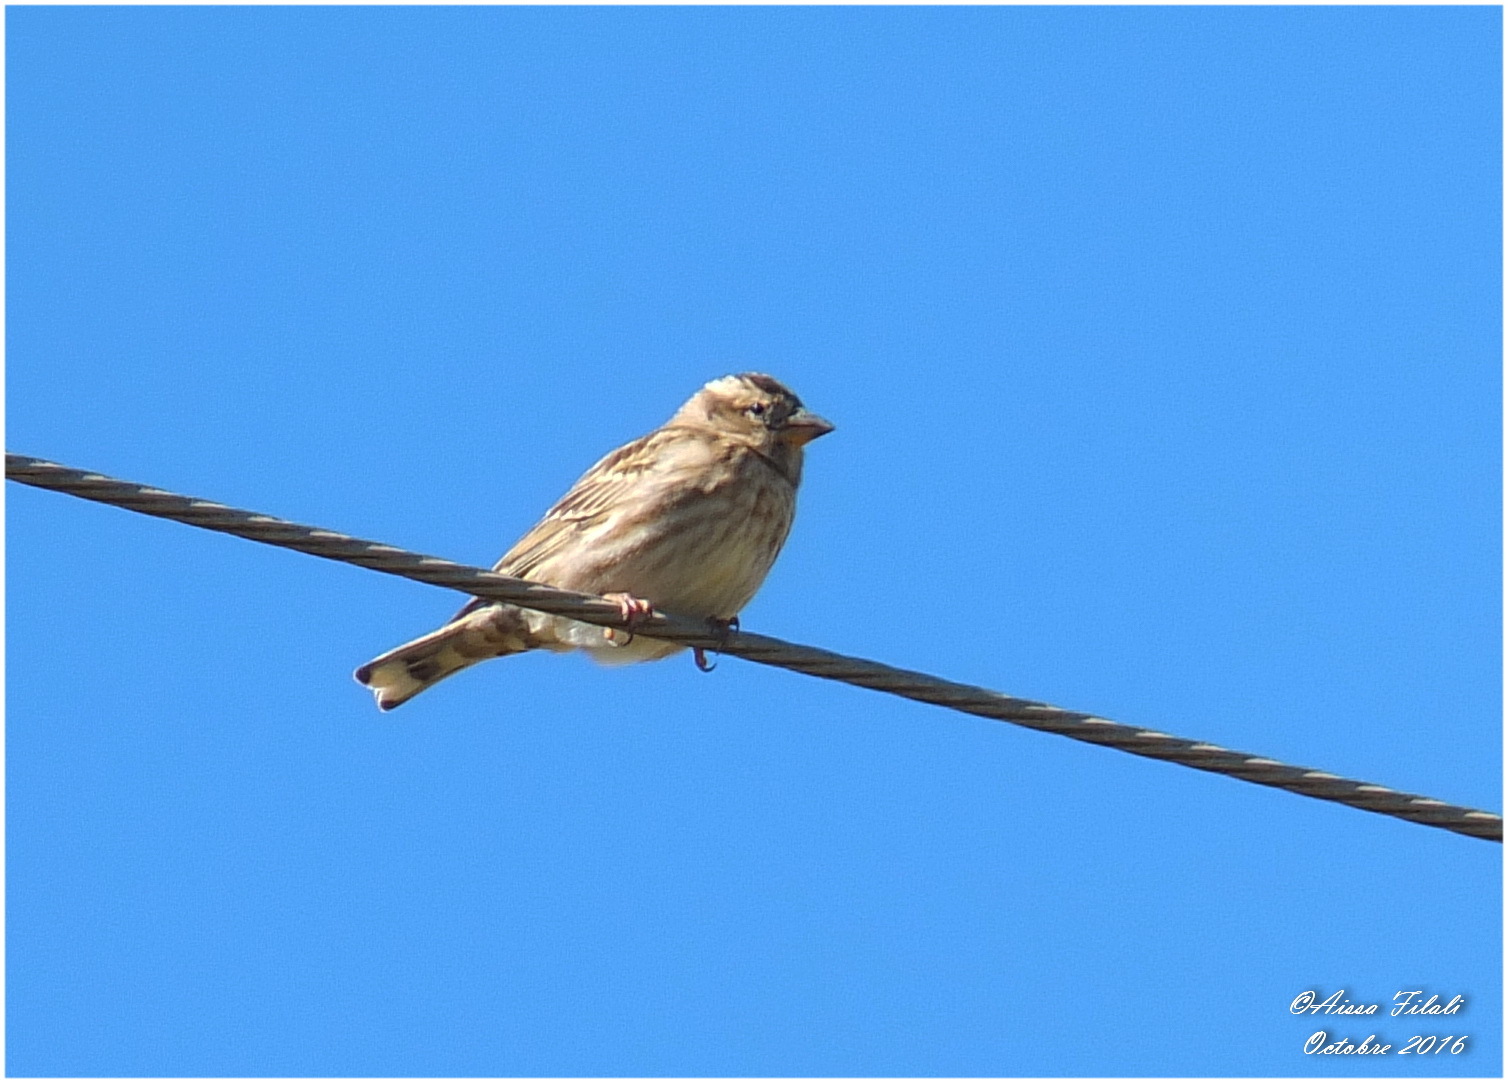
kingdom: Animalia
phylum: Chordata
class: Aves
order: Passeriformes
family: Passeridae
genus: Petronia
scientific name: Petronia petronia
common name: Rock sparrow
